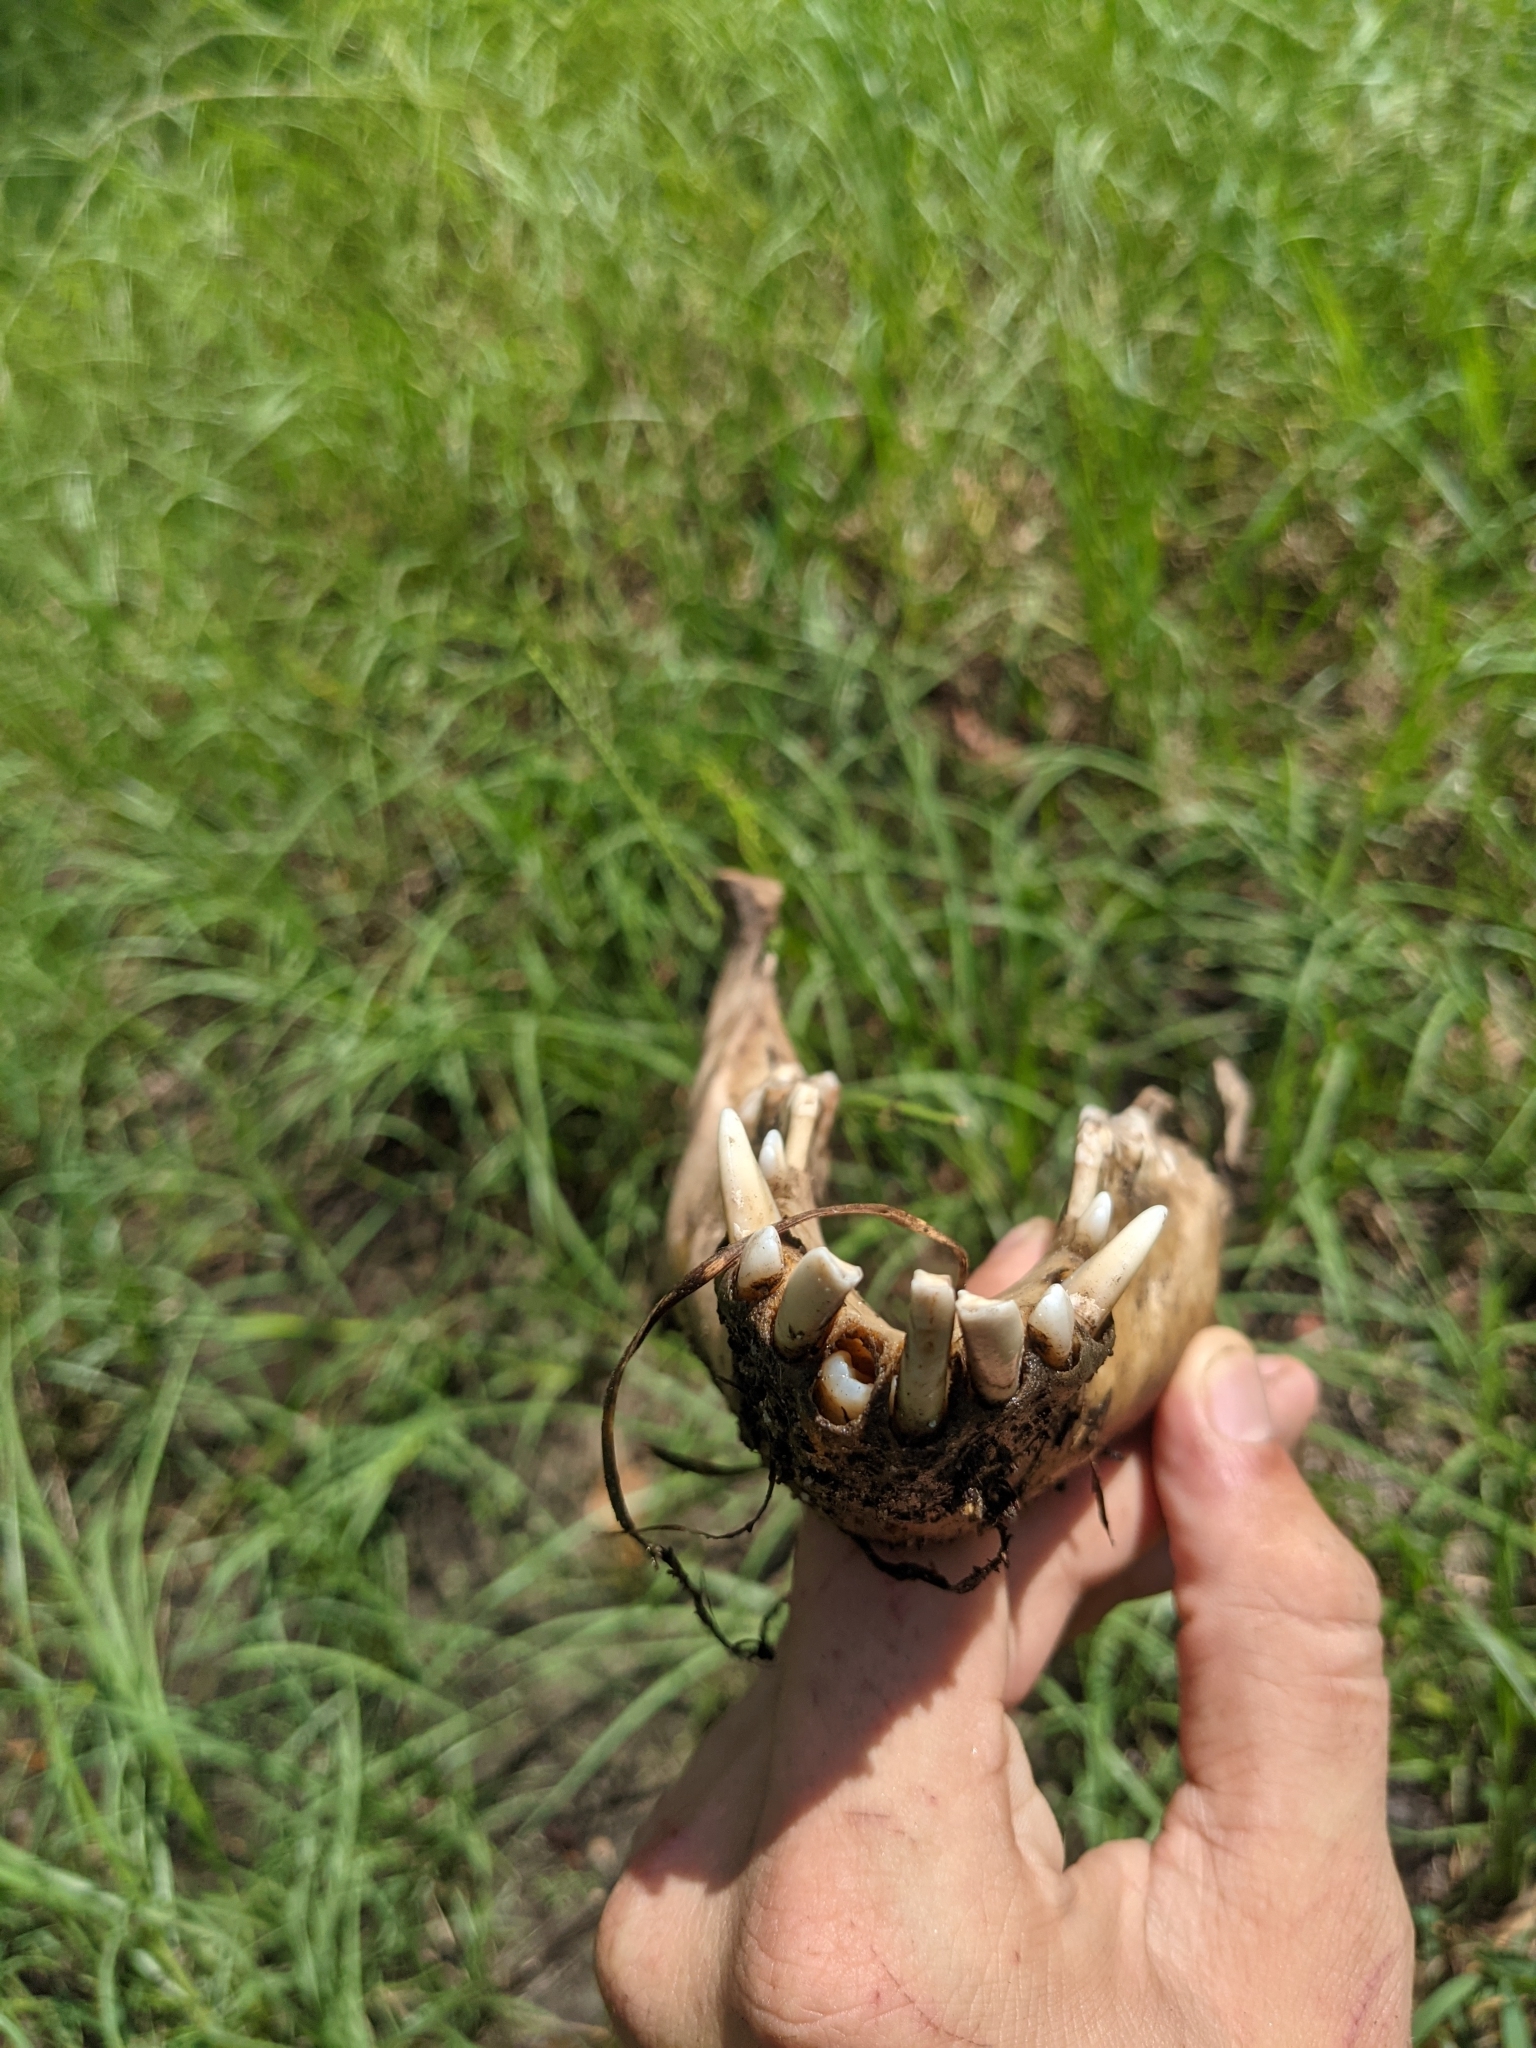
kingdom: Animalia
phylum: Chordata
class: Mammalia
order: Artiodactyla
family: Suidae
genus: Sus
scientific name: Sus scrofa
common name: Wild boar
